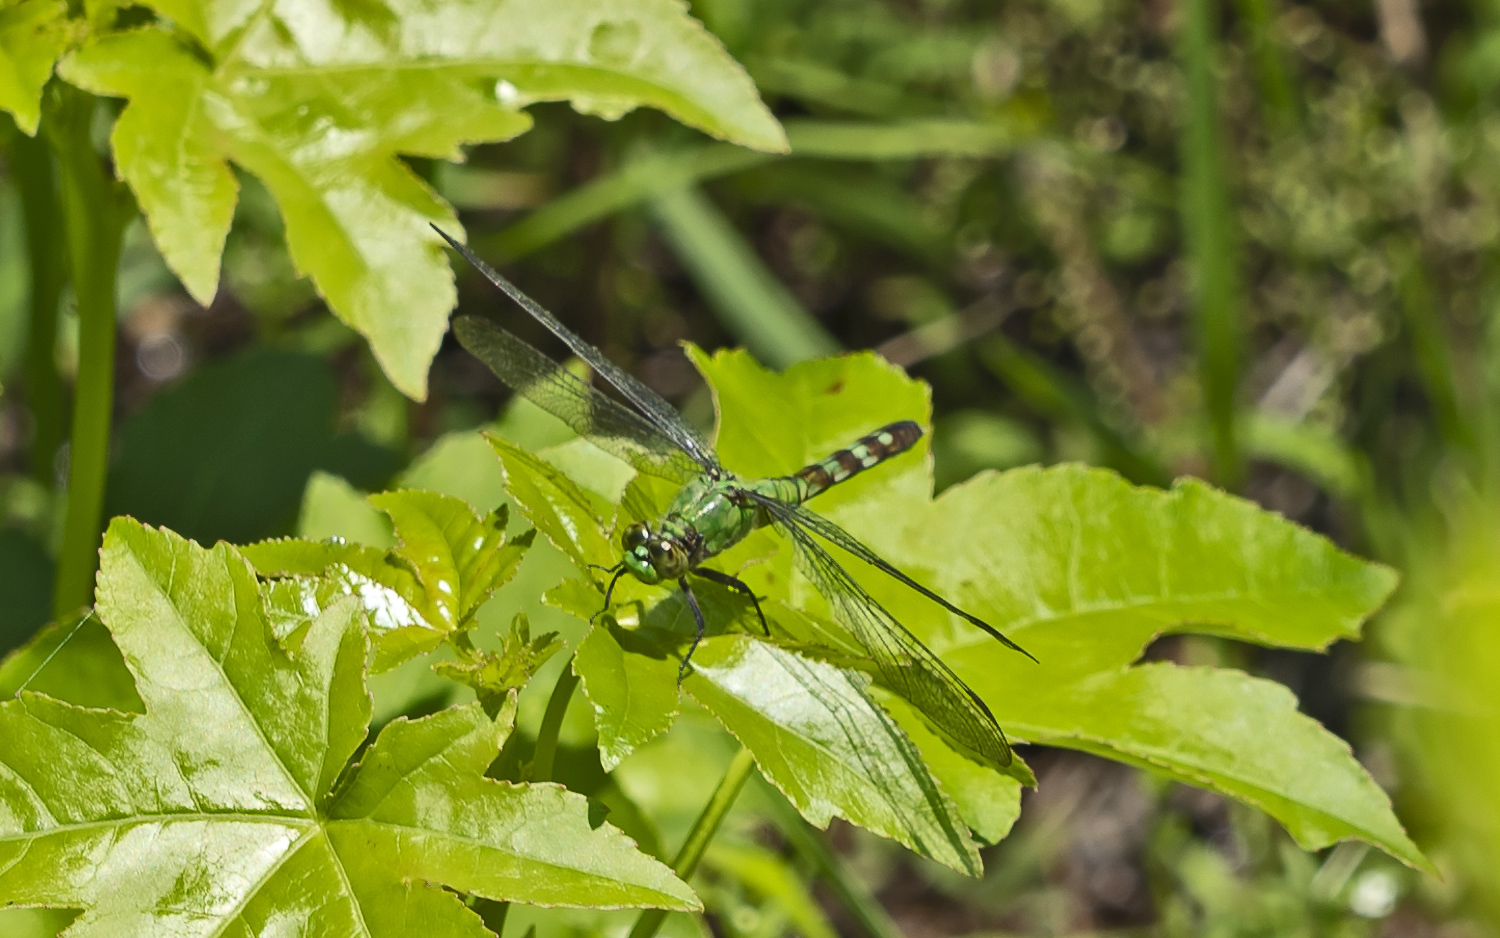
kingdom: Animalia
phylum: Arthropoda
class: Insecta
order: Odonata
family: Libellulidae
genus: Erythemis
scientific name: Erythemis simplicicollis
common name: Eastern pondhawk
